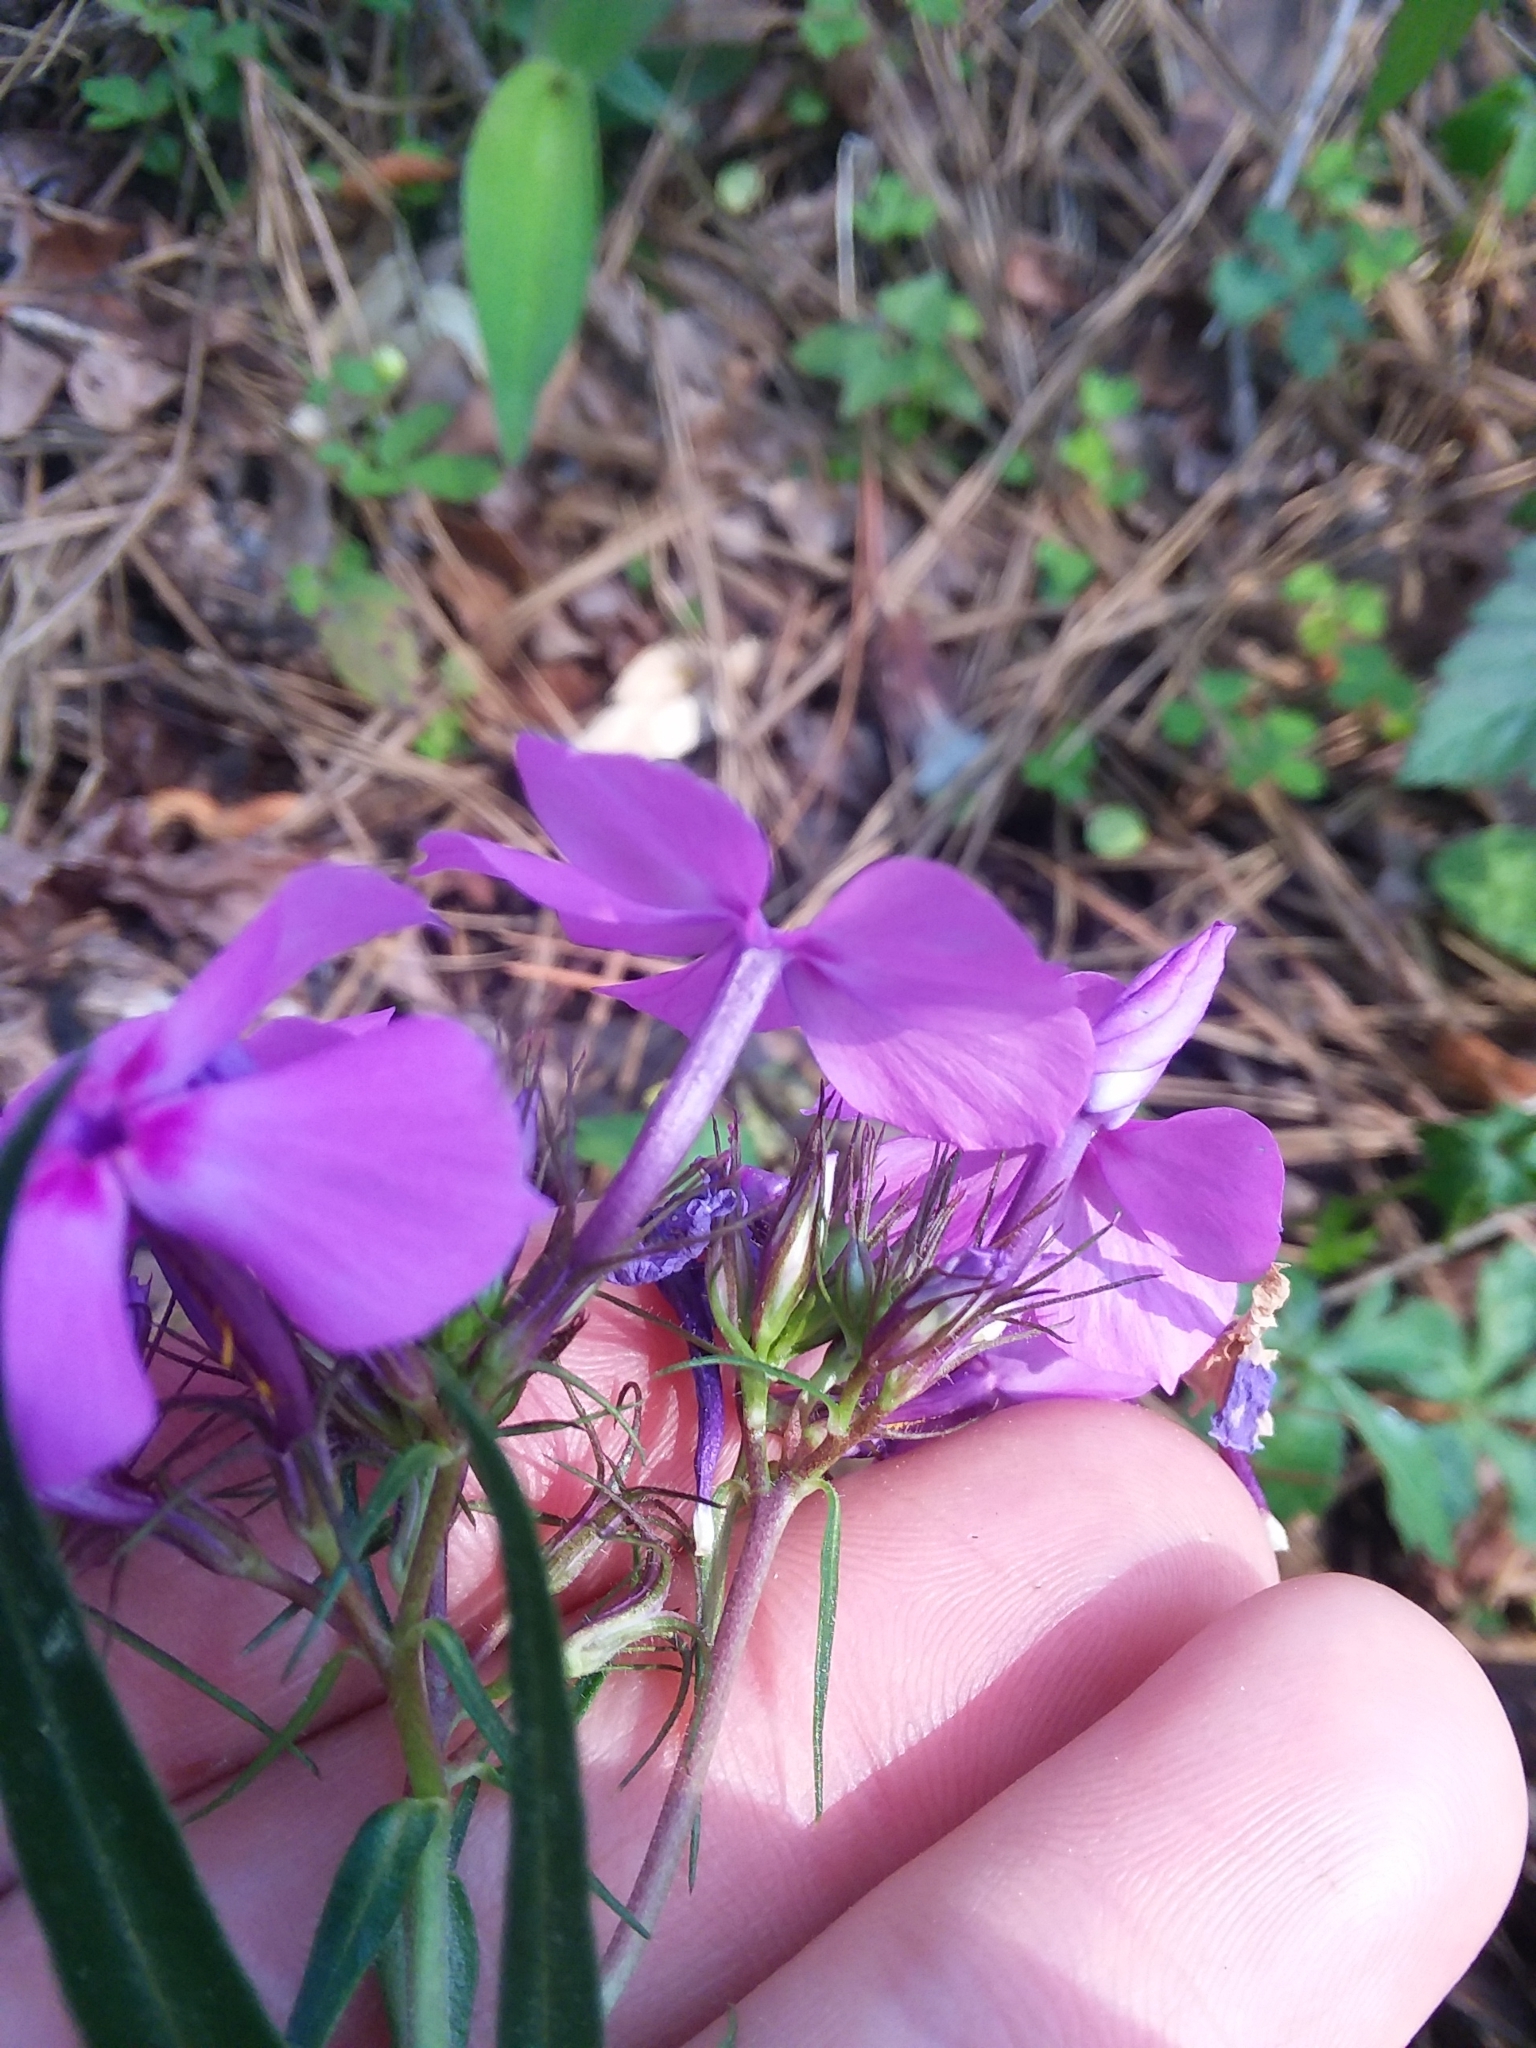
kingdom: Plantae
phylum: Tracheophyta
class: Magnoliopsida
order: Ericales
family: Polemoniaceae
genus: Phlox
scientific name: Phlox pilosa
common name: Prairie phlox
